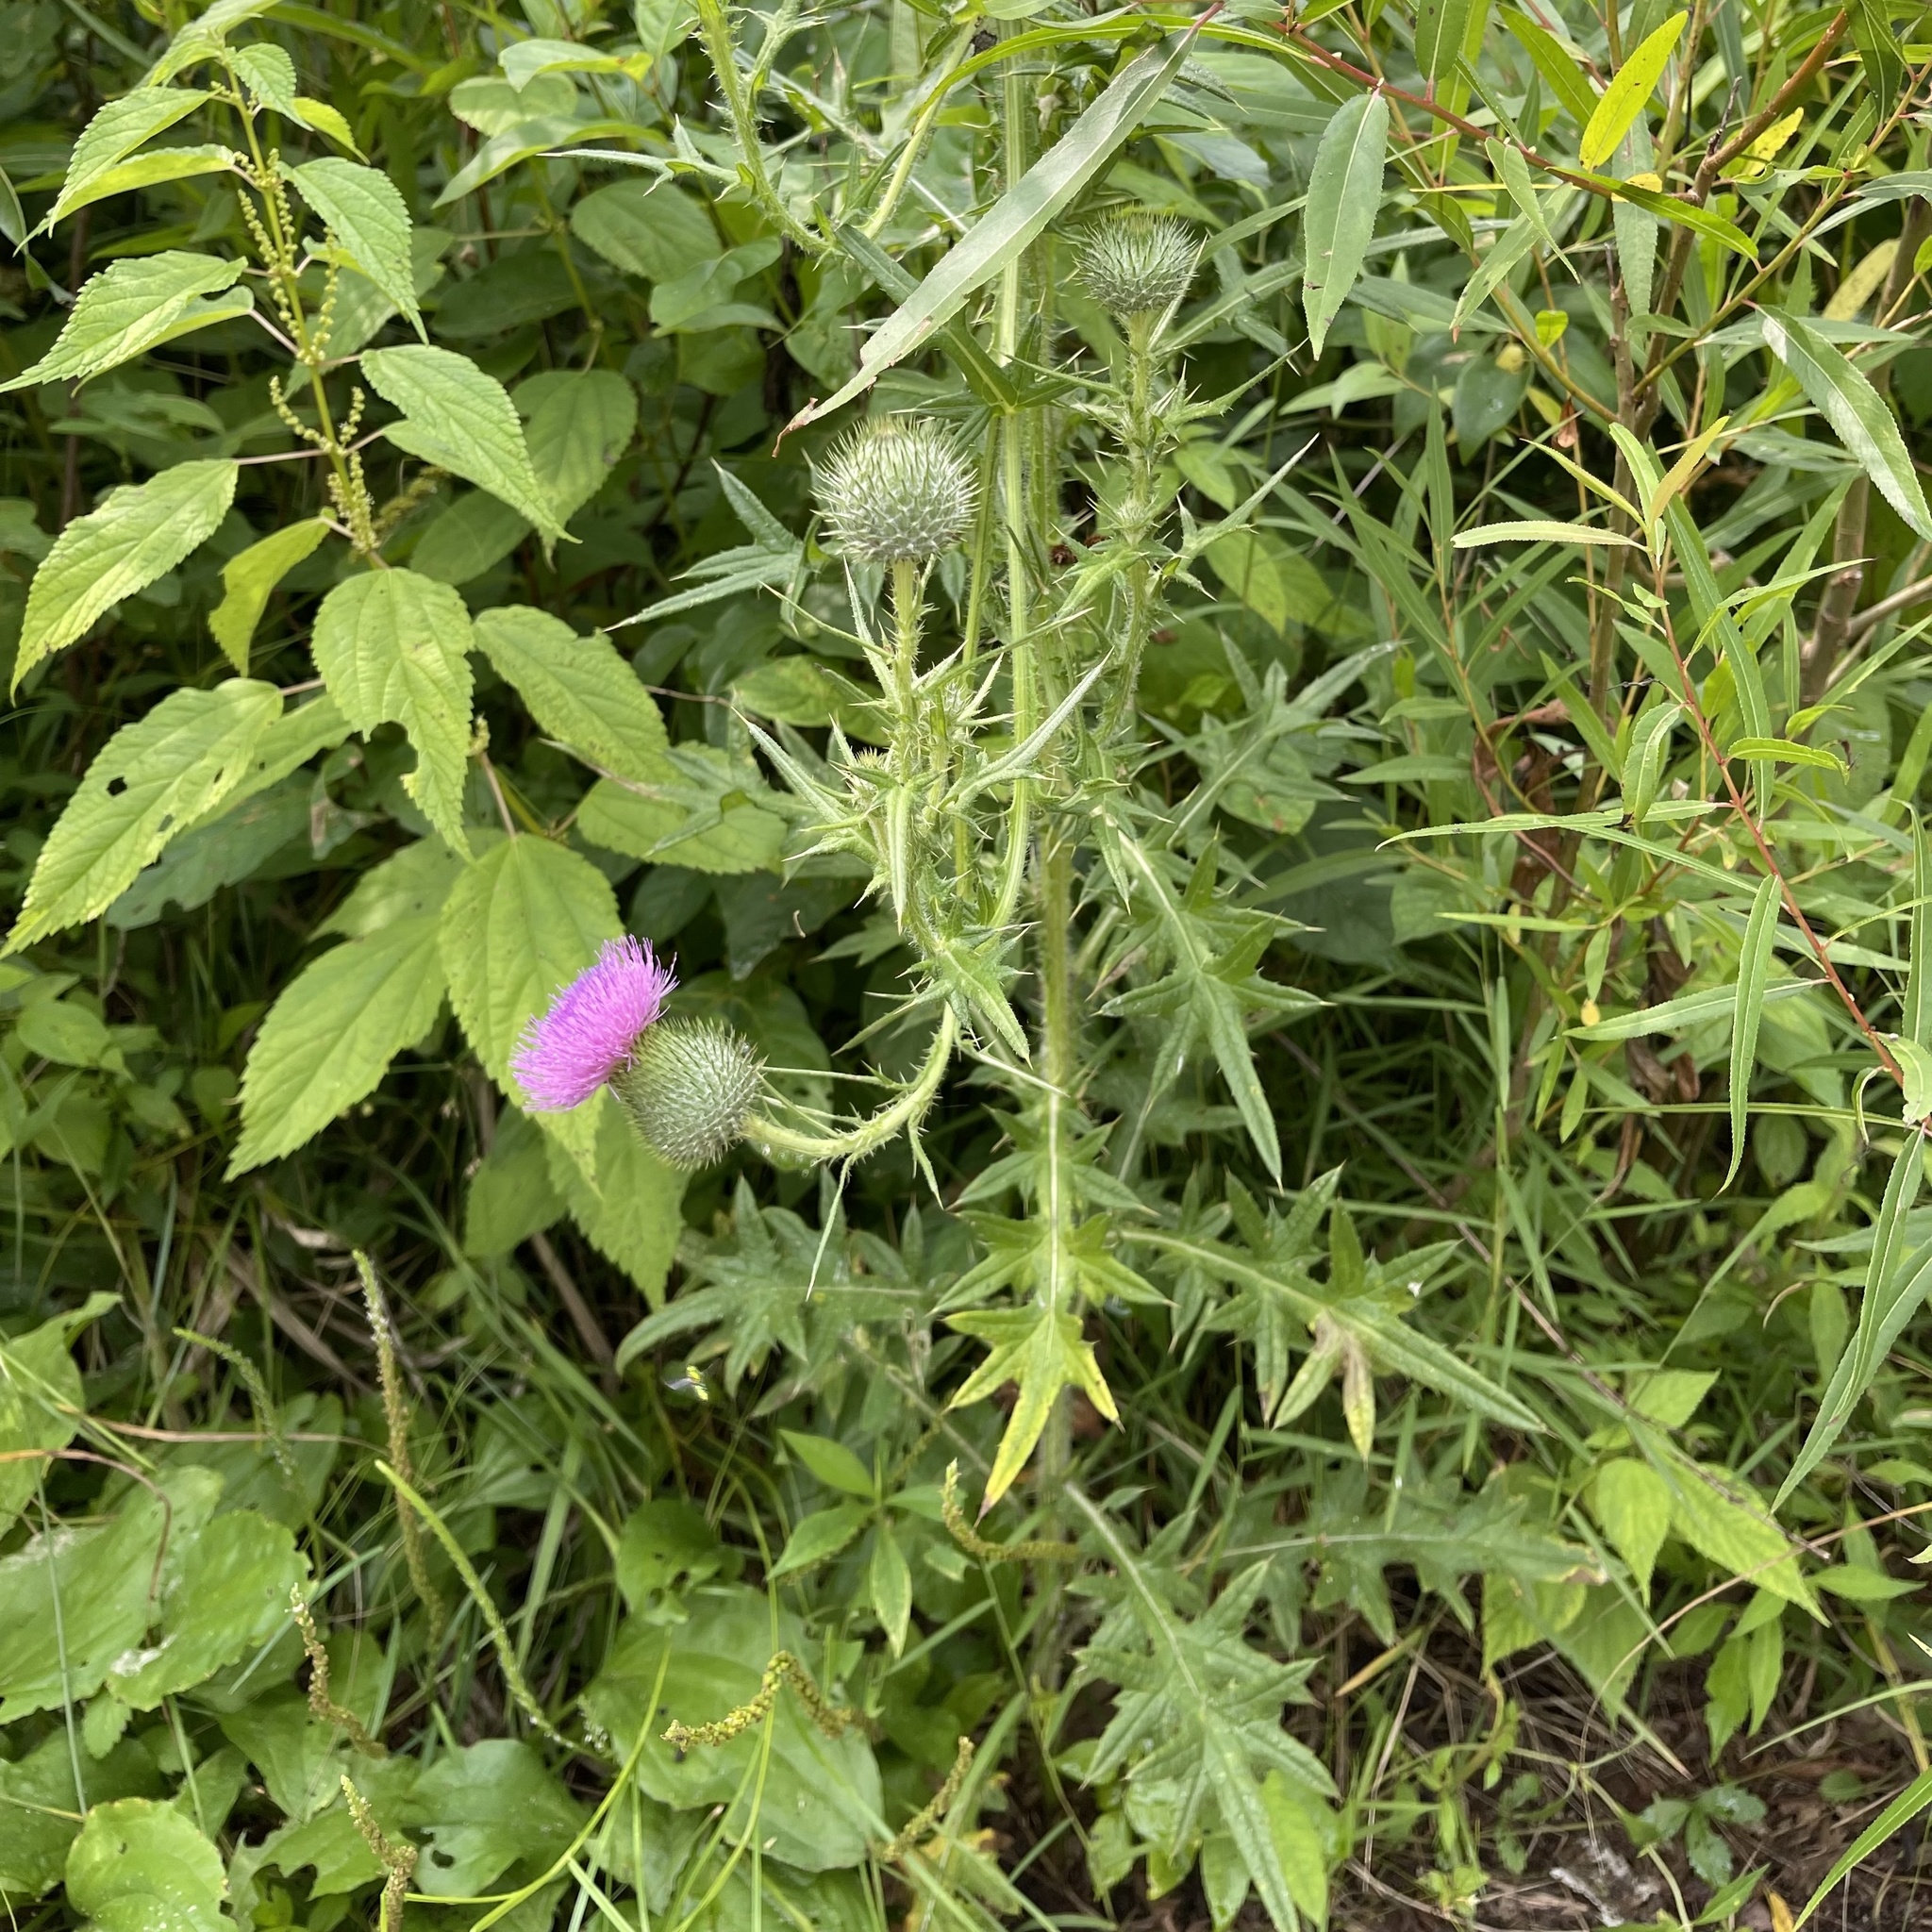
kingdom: Plantae
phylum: Tracheophyta
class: Magnoliopsida
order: Asterales
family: Asteraceae
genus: Cirsium
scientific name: Cirsium vulgare
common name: Bull thistle
